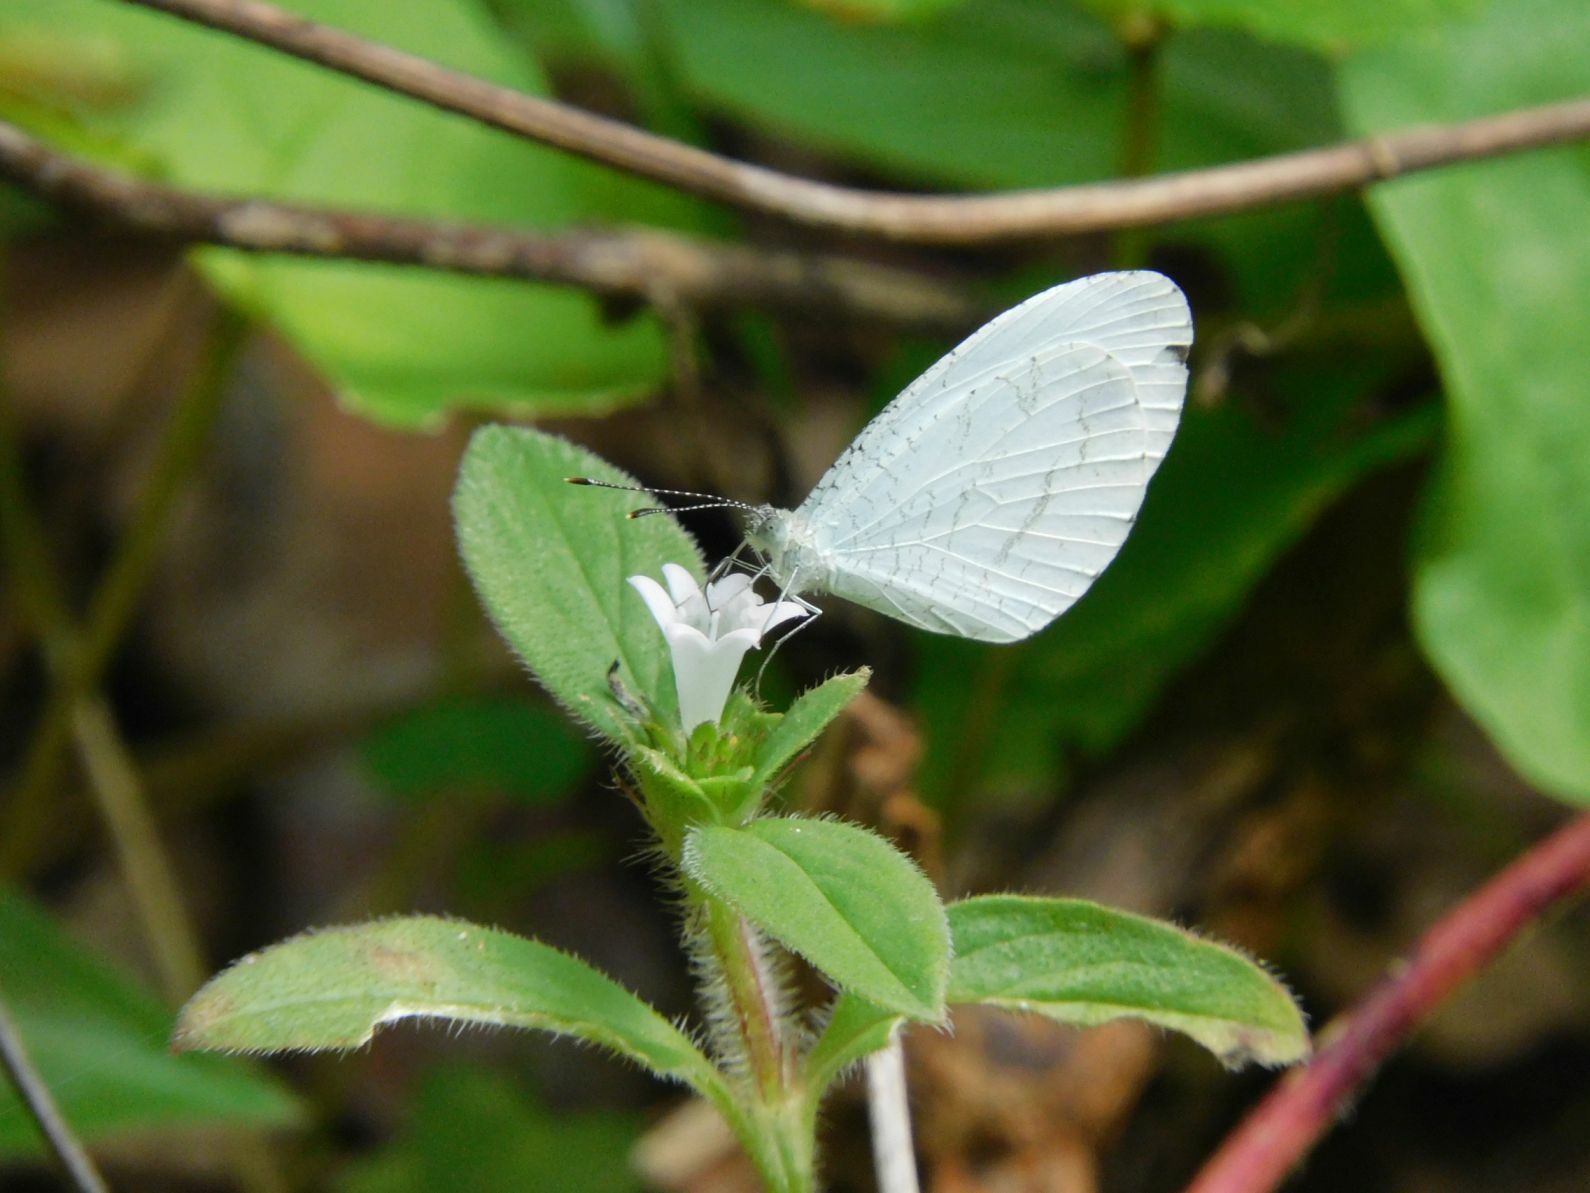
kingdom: Animalia
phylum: Arthropoda
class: Insecta
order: Lepidoptera
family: Pieridae
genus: Leptosia
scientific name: Leptosia alcesta
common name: African wood white
